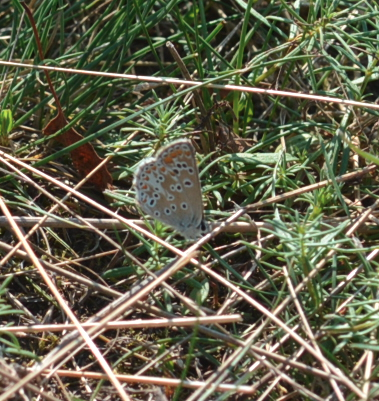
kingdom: Animalia
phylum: Arthropoda
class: Insecta
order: Lepidoptera
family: Lycaenidae
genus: Aricia
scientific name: Aricia agestis
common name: Brown argus
